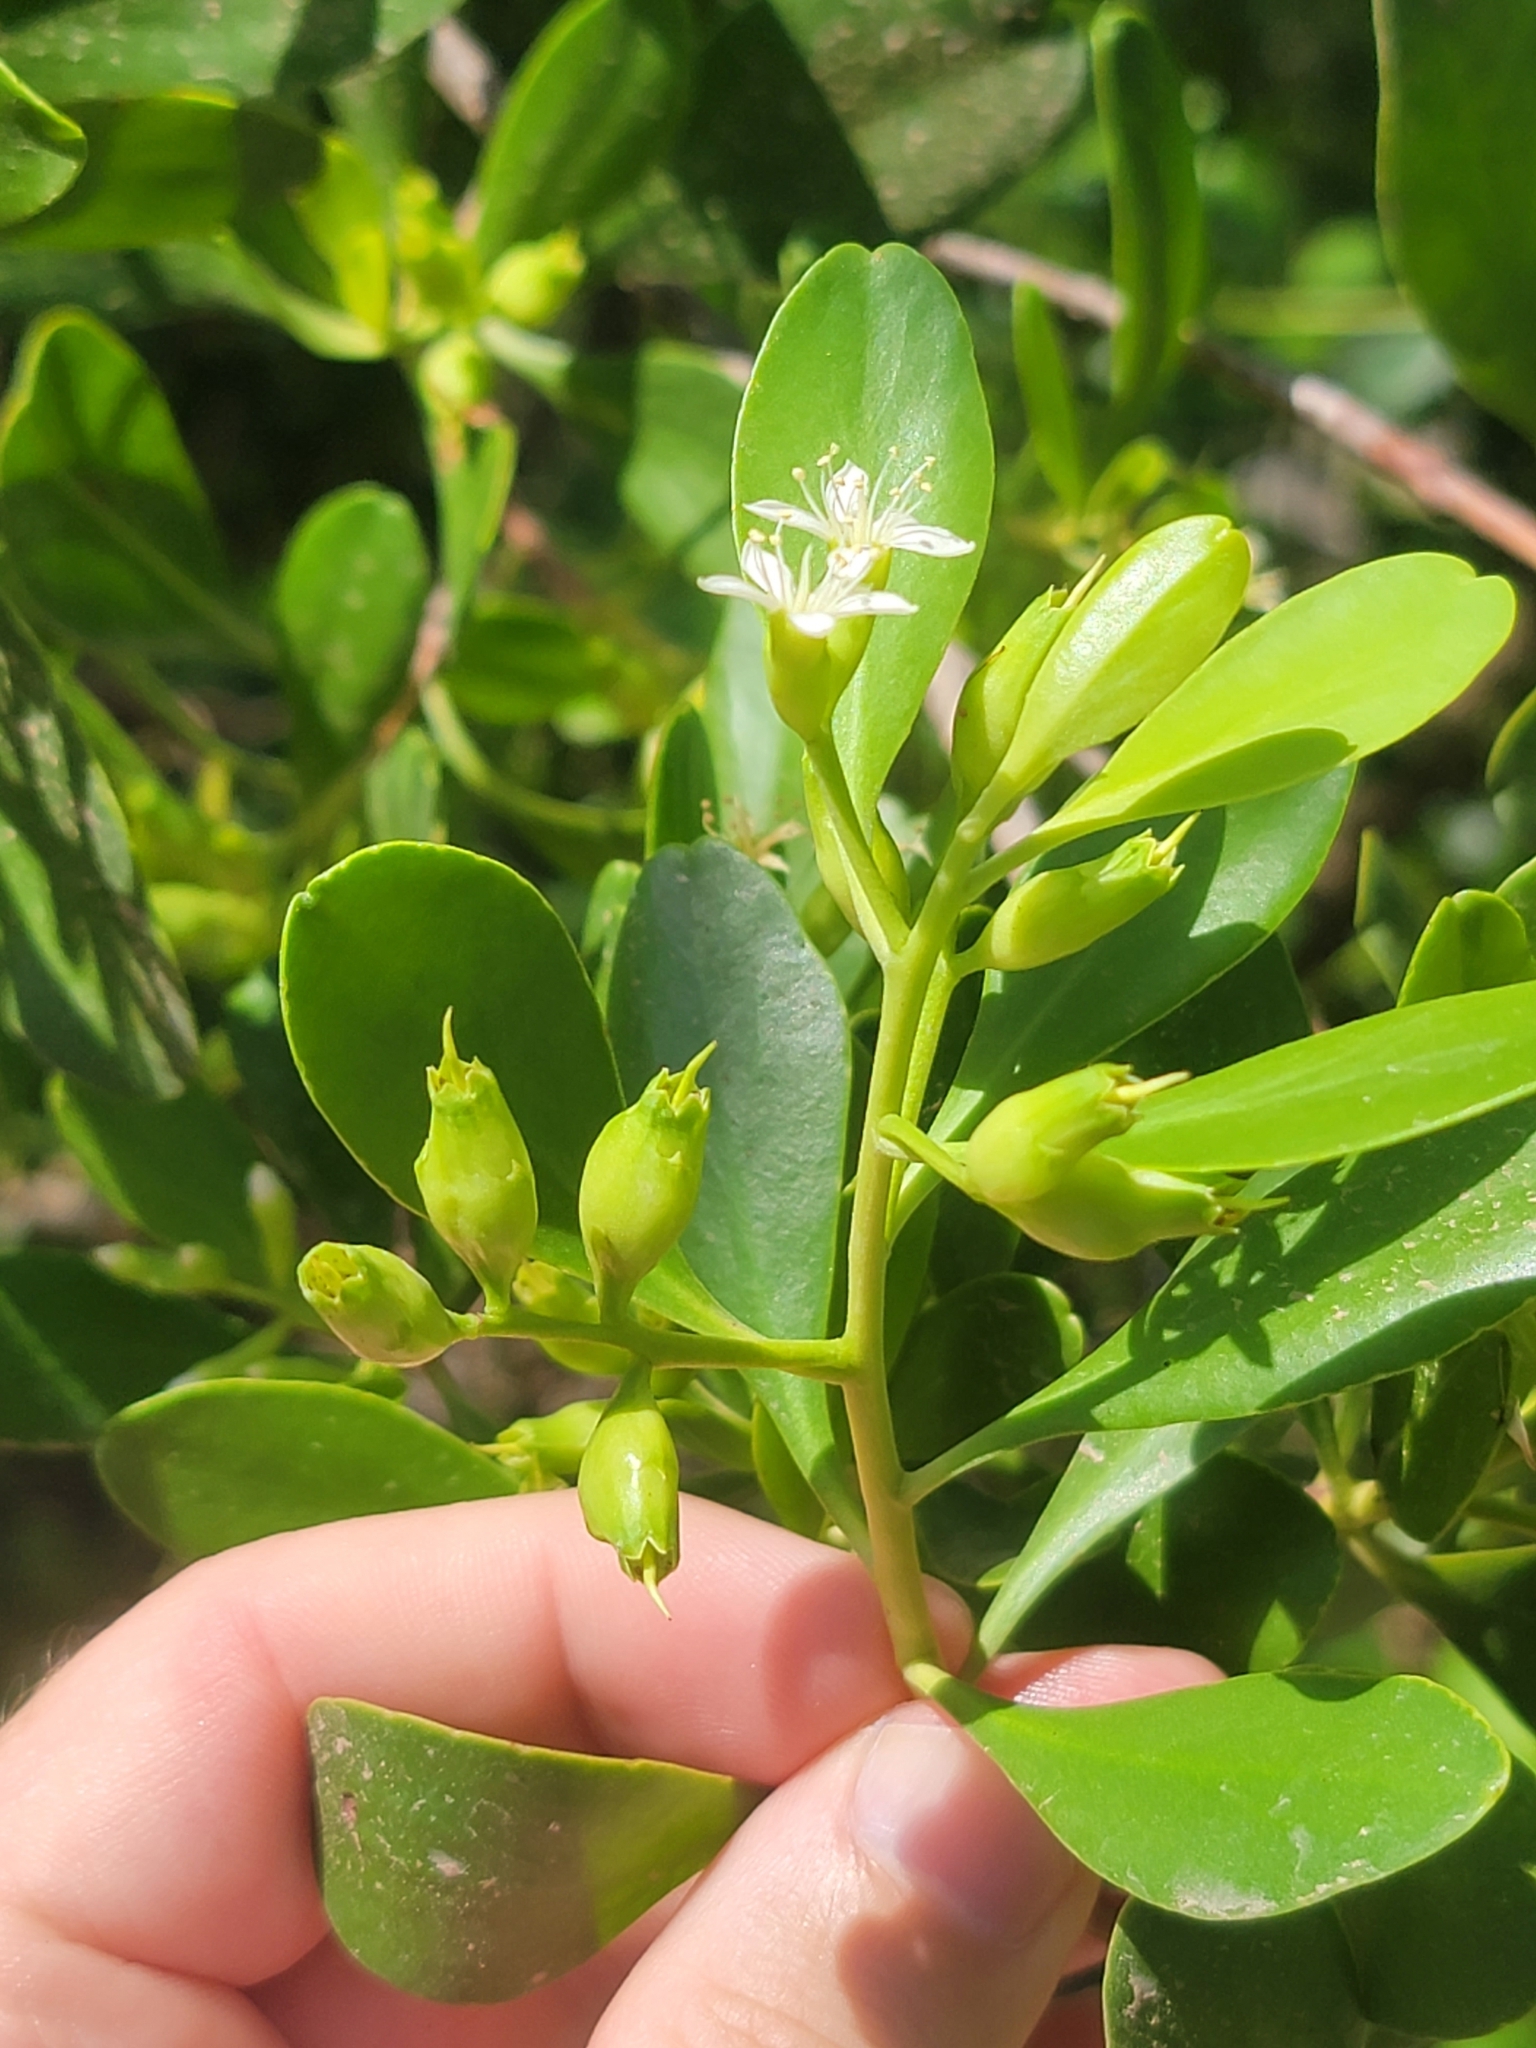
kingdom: Plantae
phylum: Tracheophyta
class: Magnoliopsida
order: Myrtales
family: Combretaceae
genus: Lumnitzera
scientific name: Lumnitzera racemosa
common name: White-flowered black mangrove
